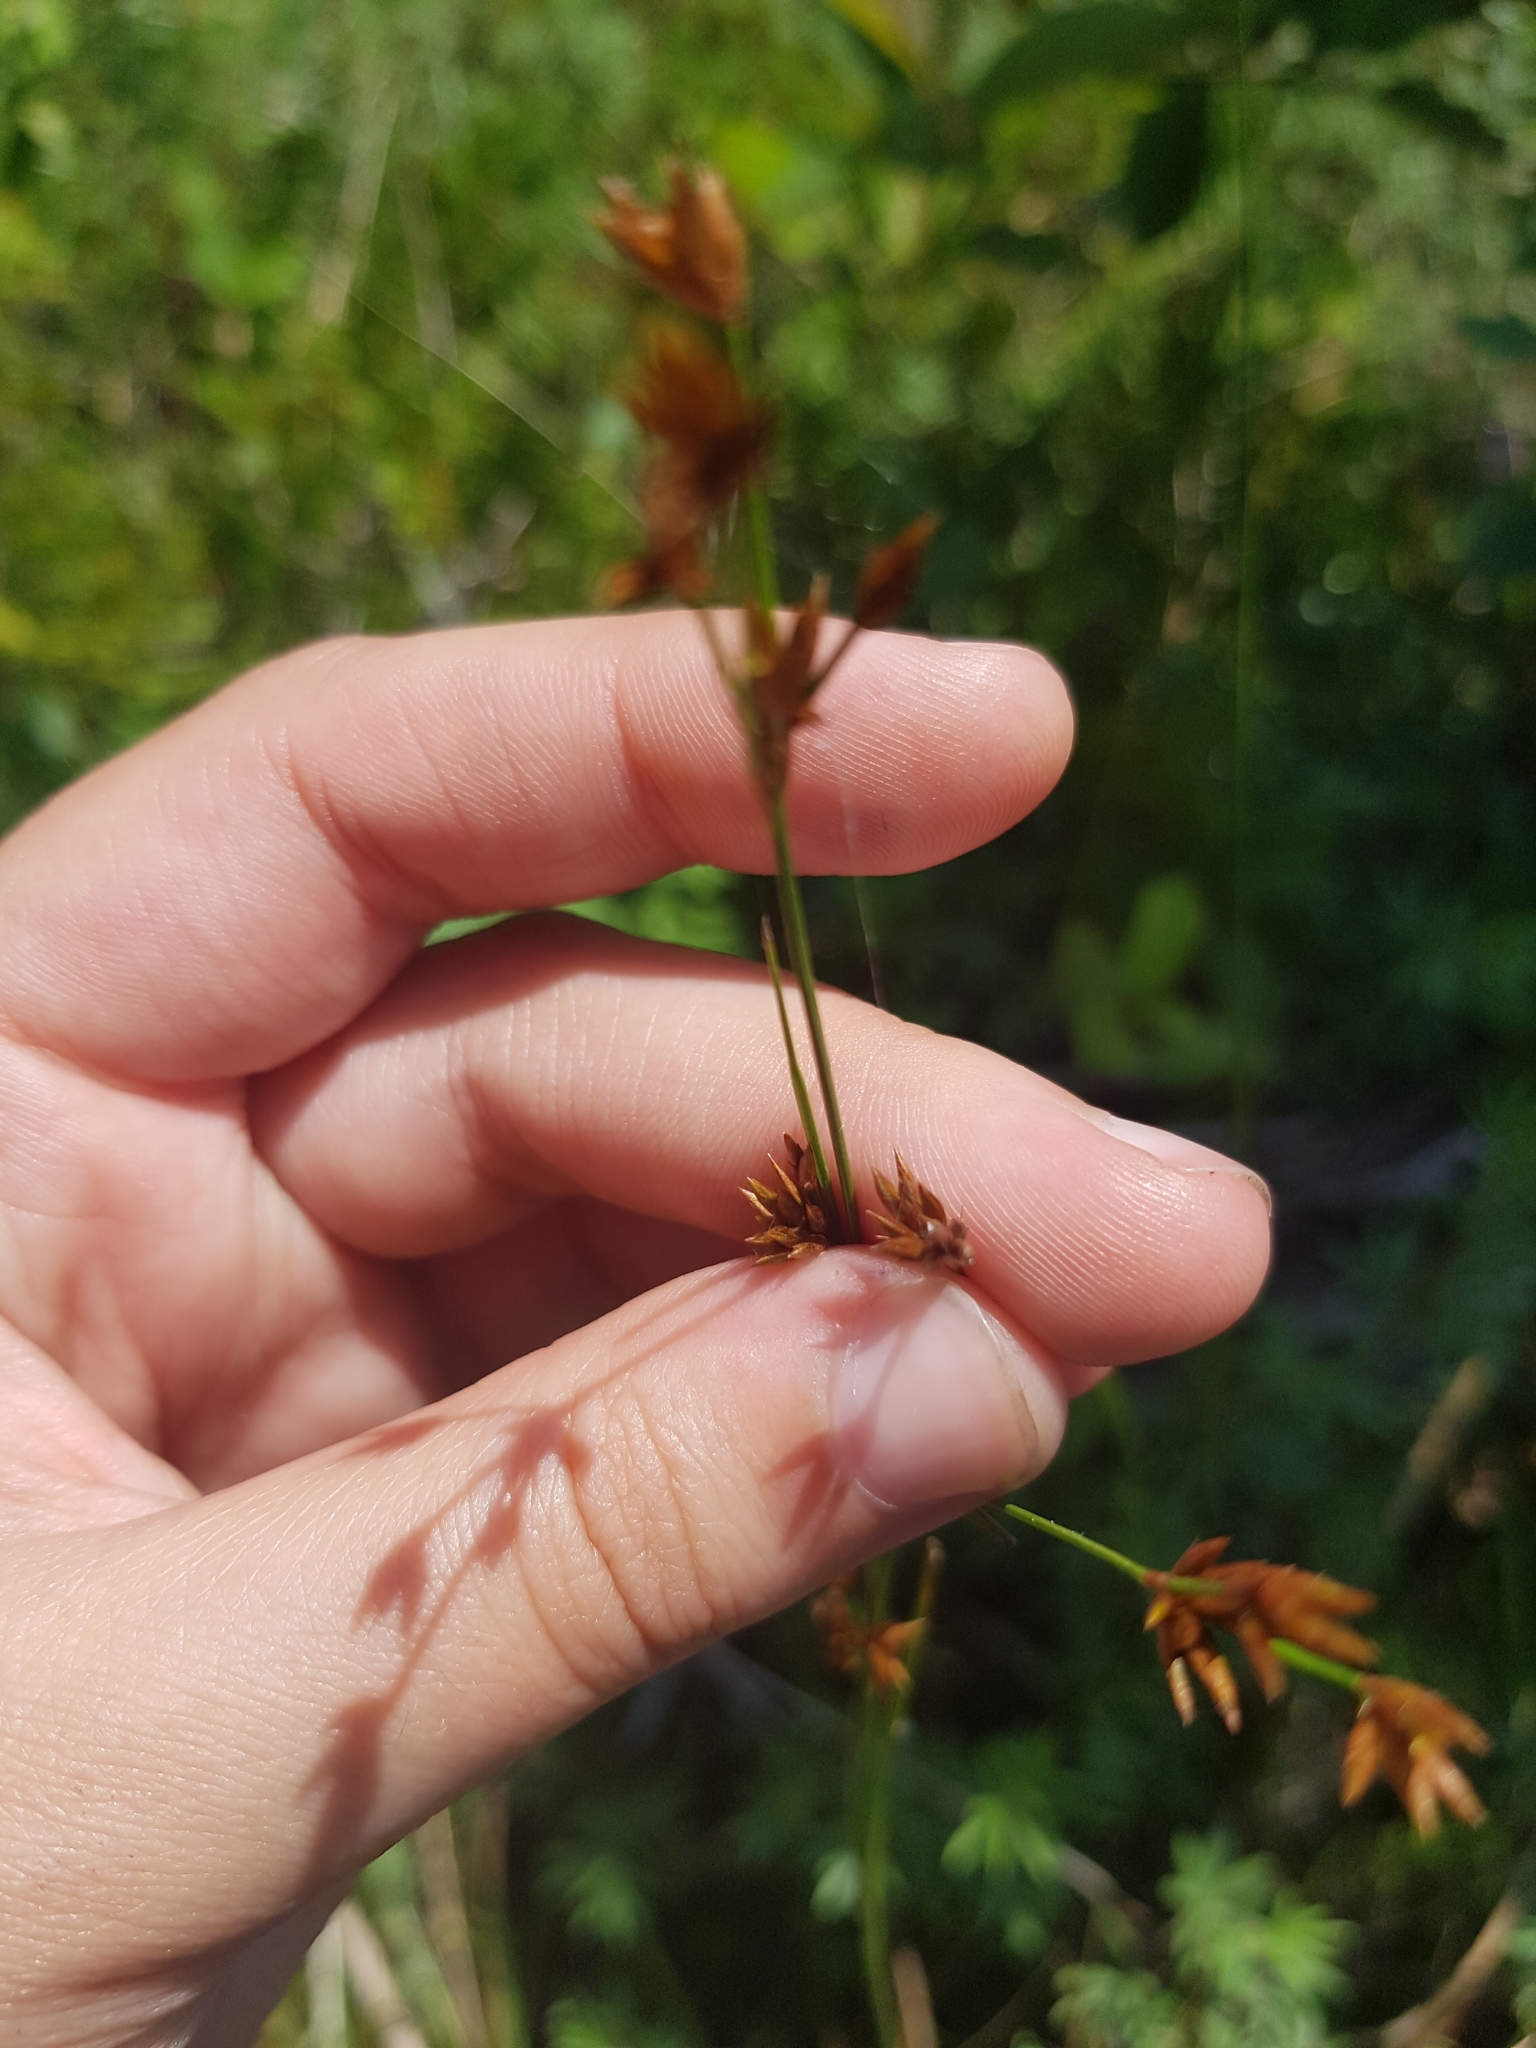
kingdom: Plantae
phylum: Tracheophyta
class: Liliopsida
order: Poales
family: Cyperaceae
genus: Cladium
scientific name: Cladium mariscoides
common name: Smooth sawgrass
